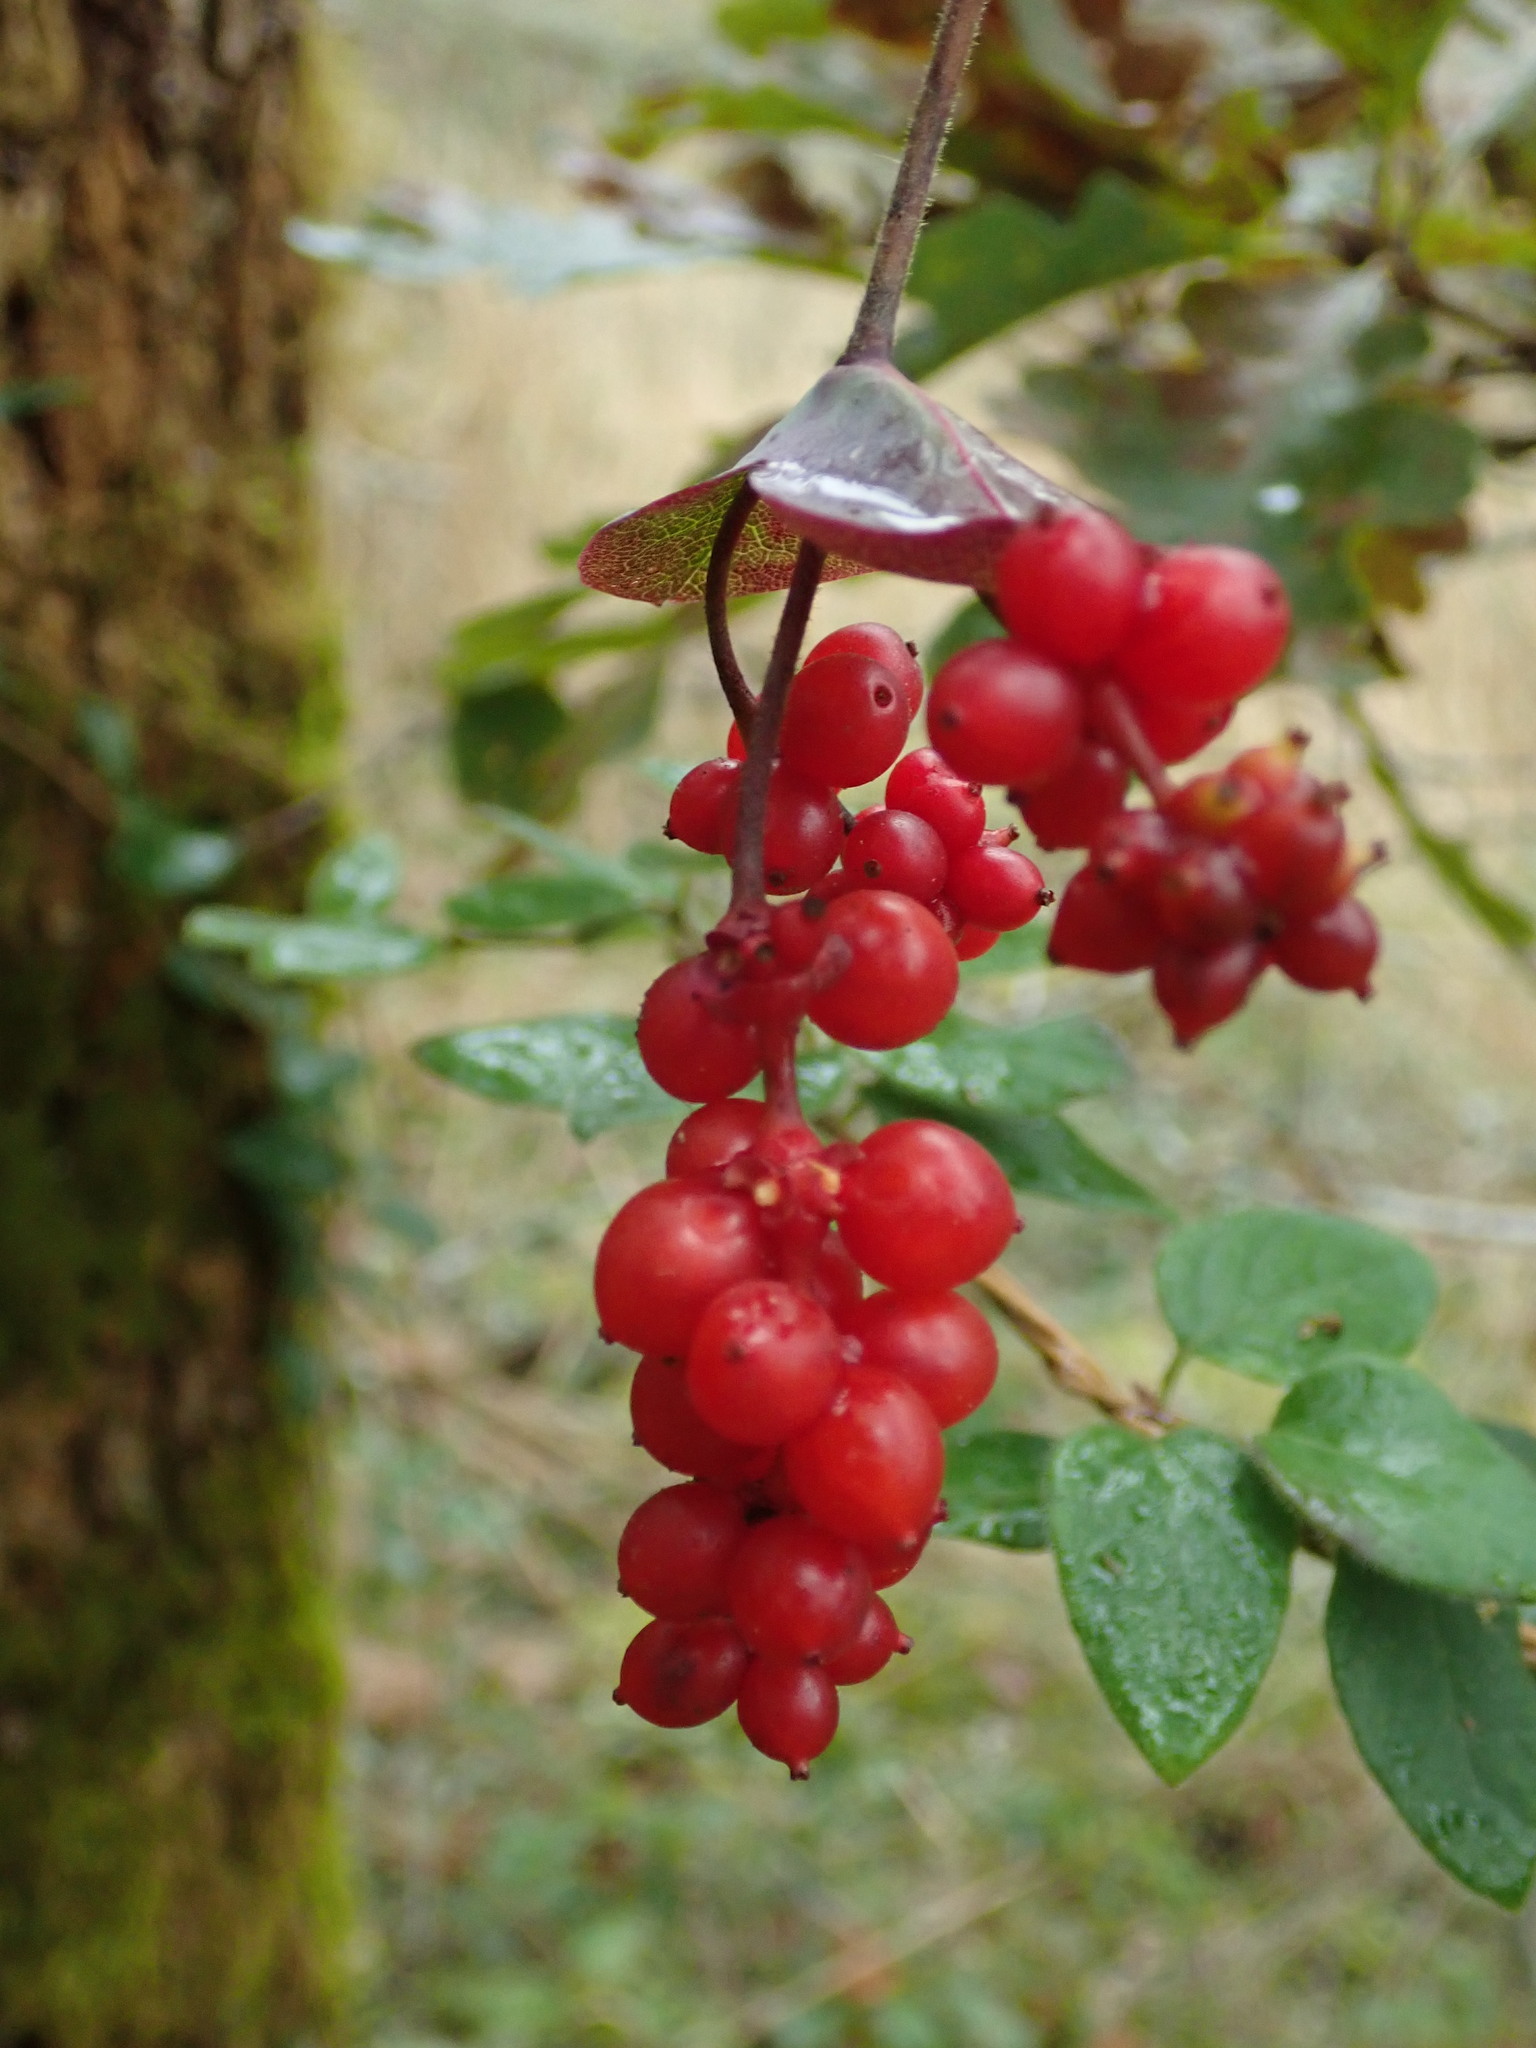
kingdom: Plantae
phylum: Tracheophyta
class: Magnoliopsida
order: Dipsacales
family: Caprifoliaceae
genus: Lonicera
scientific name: Lonicera hispidula
